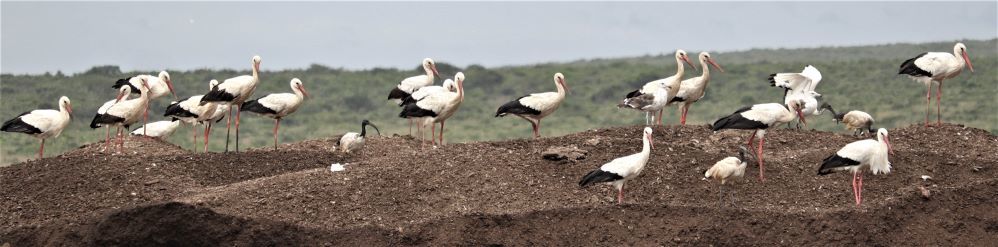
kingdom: Animalia
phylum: Chordata
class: Aves
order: Ciconiiformes
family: Ciconiidae
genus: Ciconia
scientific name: Ciconia ciconia
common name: White stork
